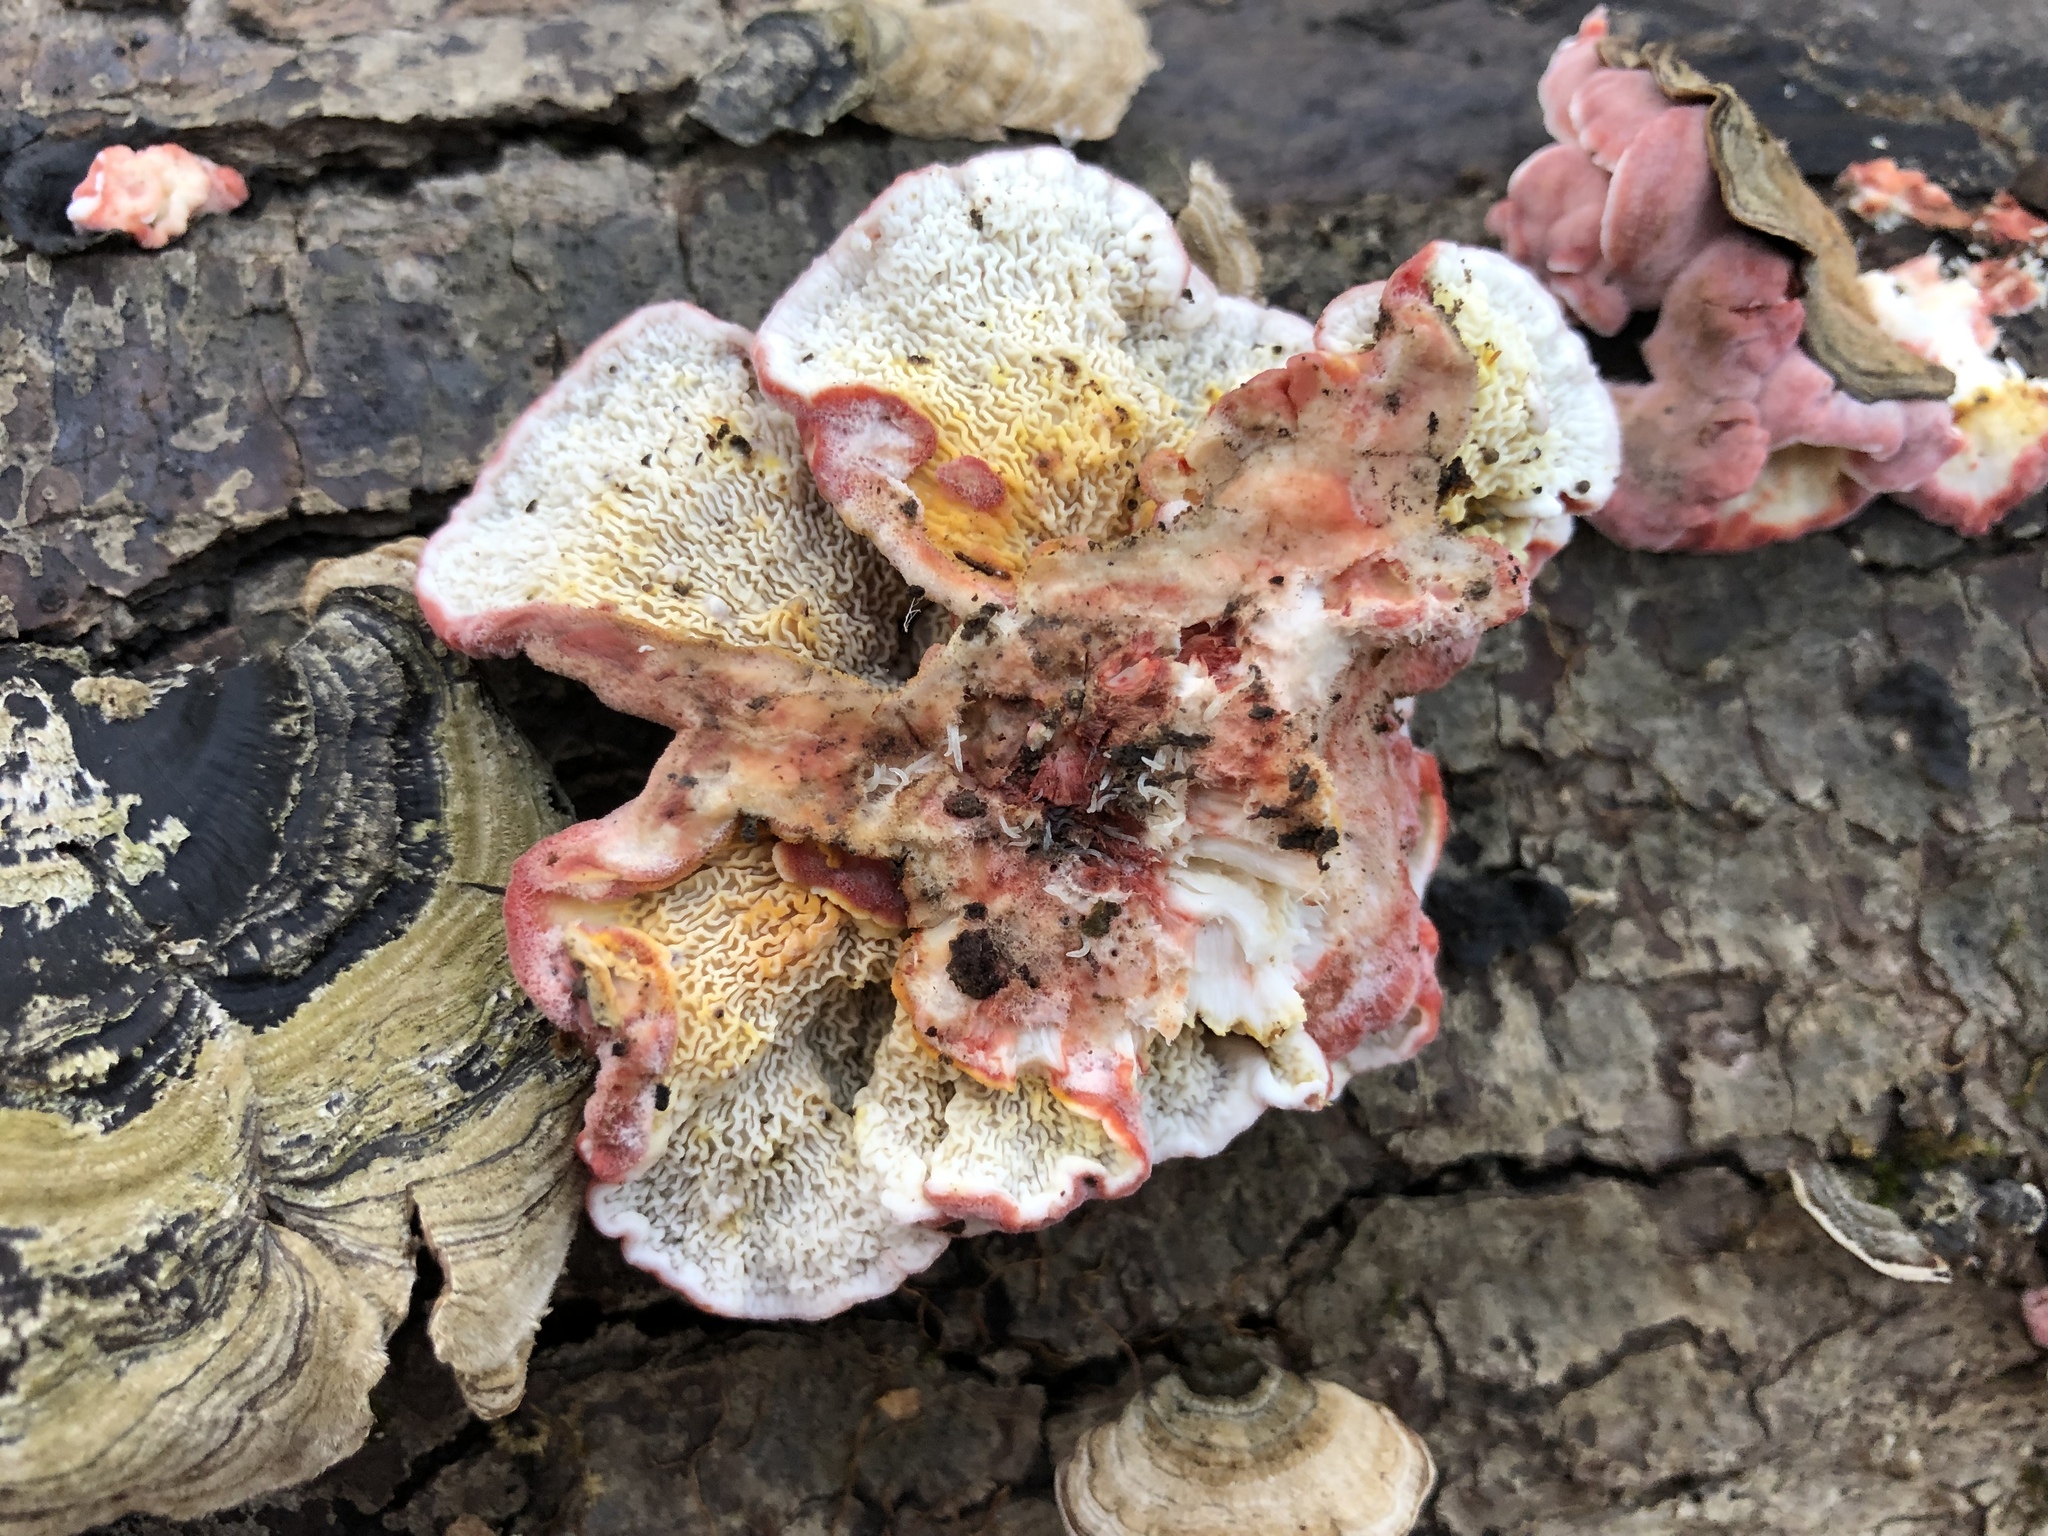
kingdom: Fungi
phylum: Basidiomycota
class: Agaricomycetes
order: Polyporales
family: Irpicaceae
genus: Byssomerulius
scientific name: Byssomerulius incarnatus
